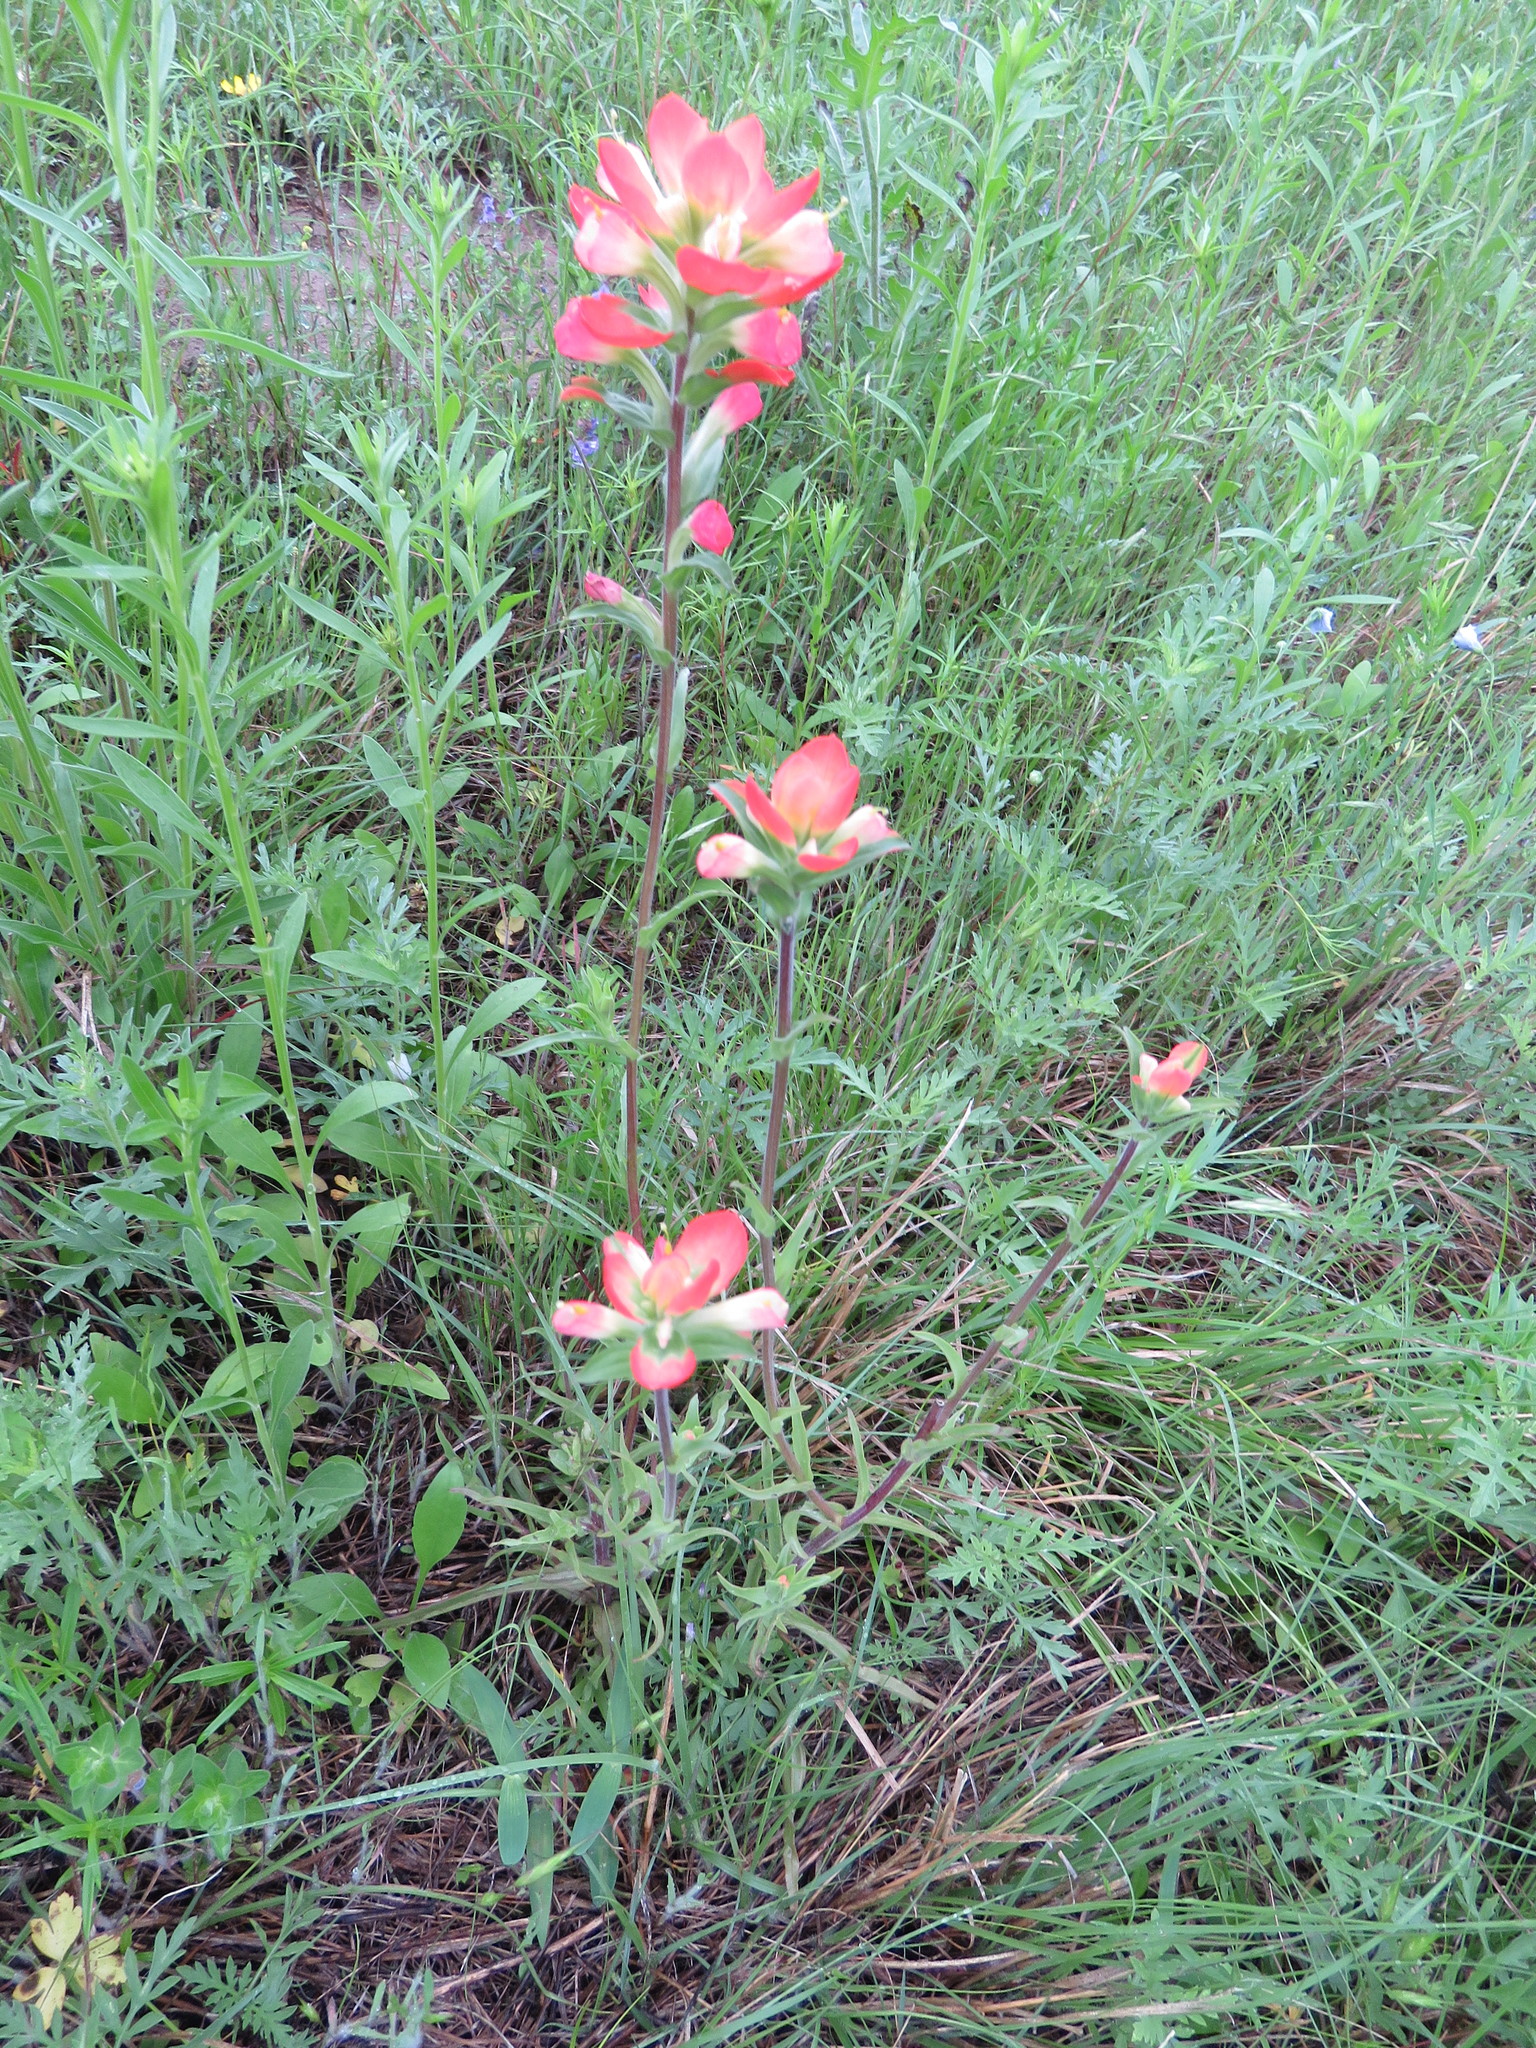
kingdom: Plantae
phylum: Tracheophyta
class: Magnoliopsida
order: Lamiales
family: Orobanchaceae
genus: Castilleja
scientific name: Castilleja indivisa
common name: Texas paintbrush
